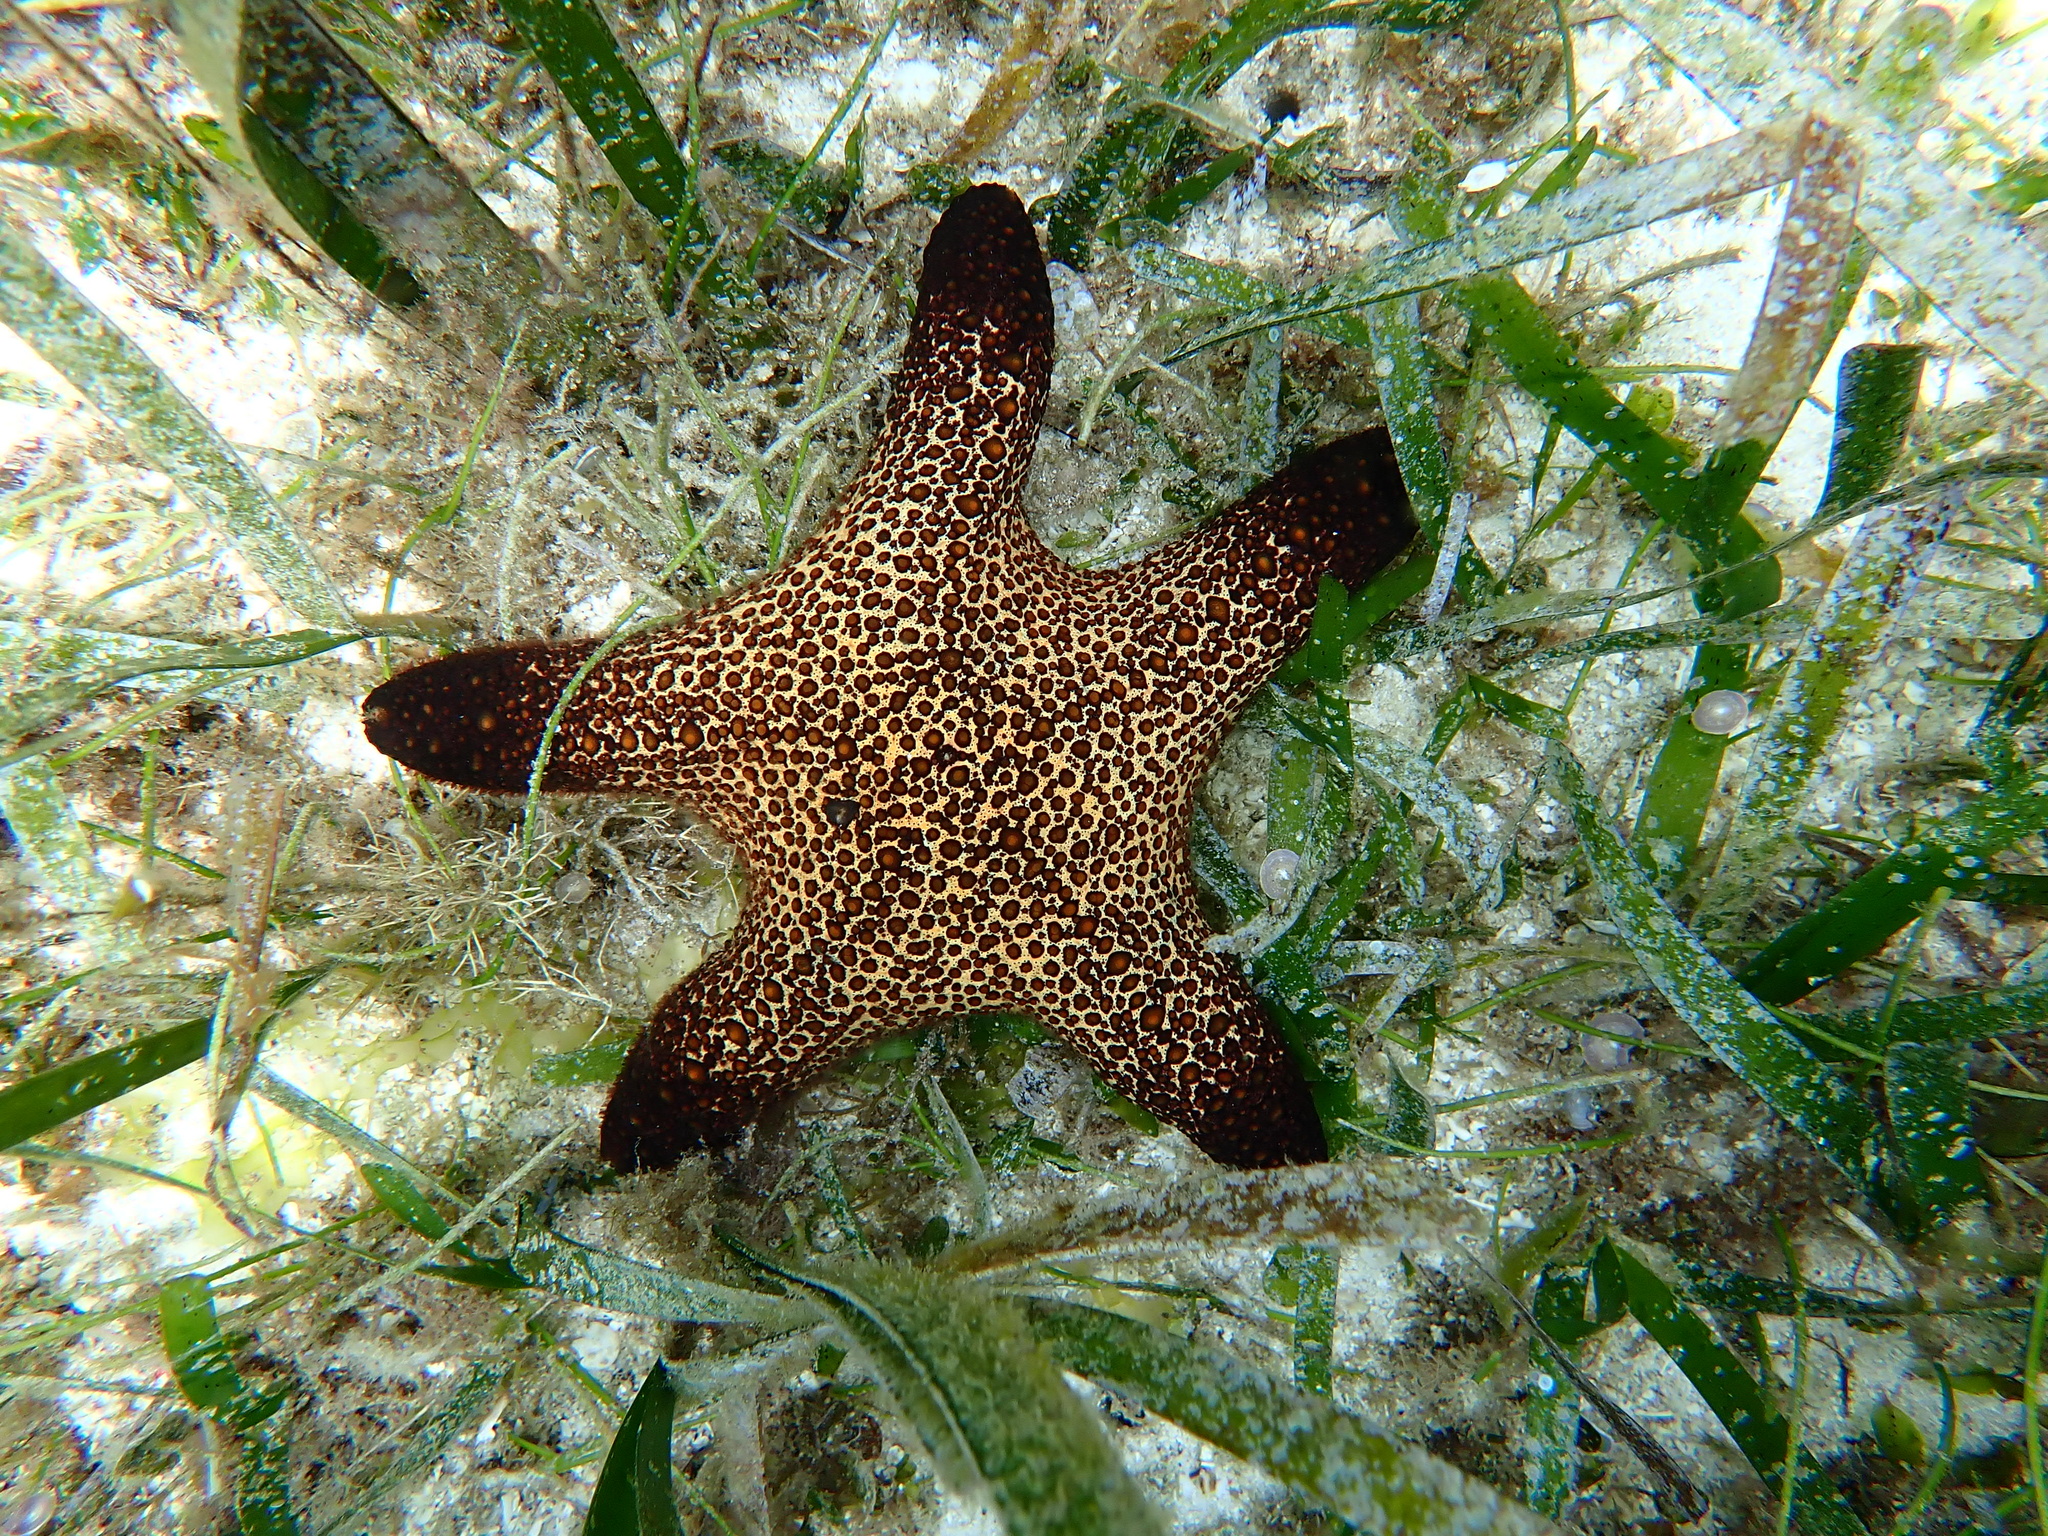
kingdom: Animalia
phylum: Echinodermata
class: Asteroidea
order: Valvatida
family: Oreasteridae
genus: Pentaster
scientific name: Pentaster obtusatus
